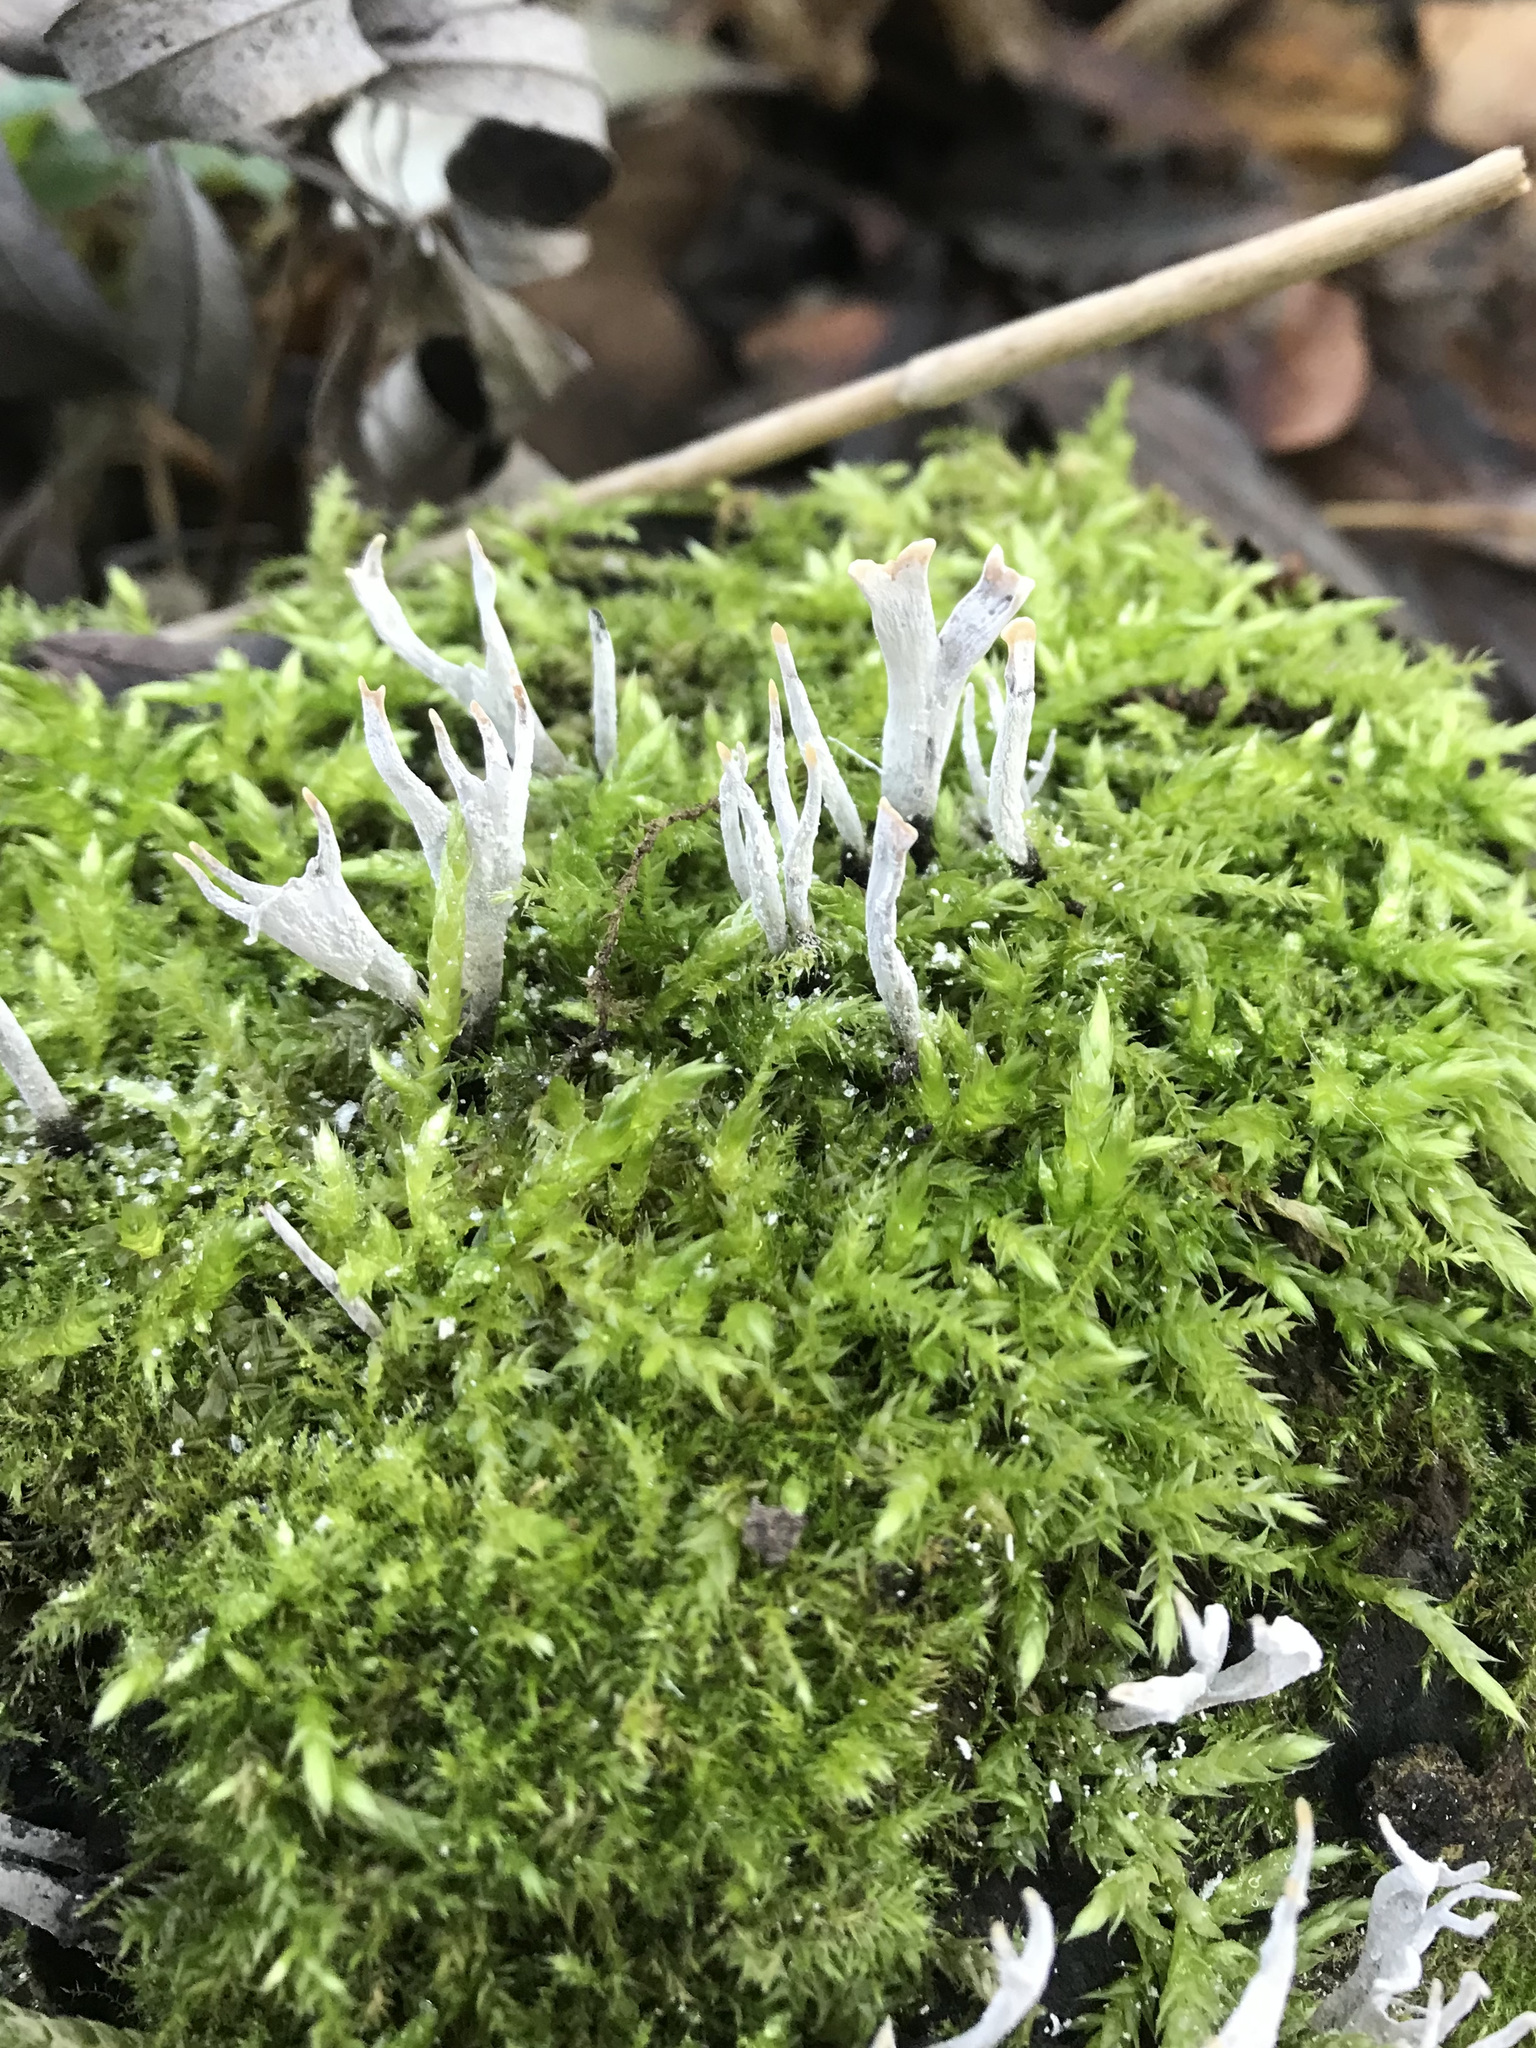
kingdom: Fungi
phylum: Ascomycota
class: Sordariomycetes
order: Xylariales
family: Xylariaceae
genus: Xylaria
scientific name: Xylaria hypoxylon
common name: Candle-snuff fungus
